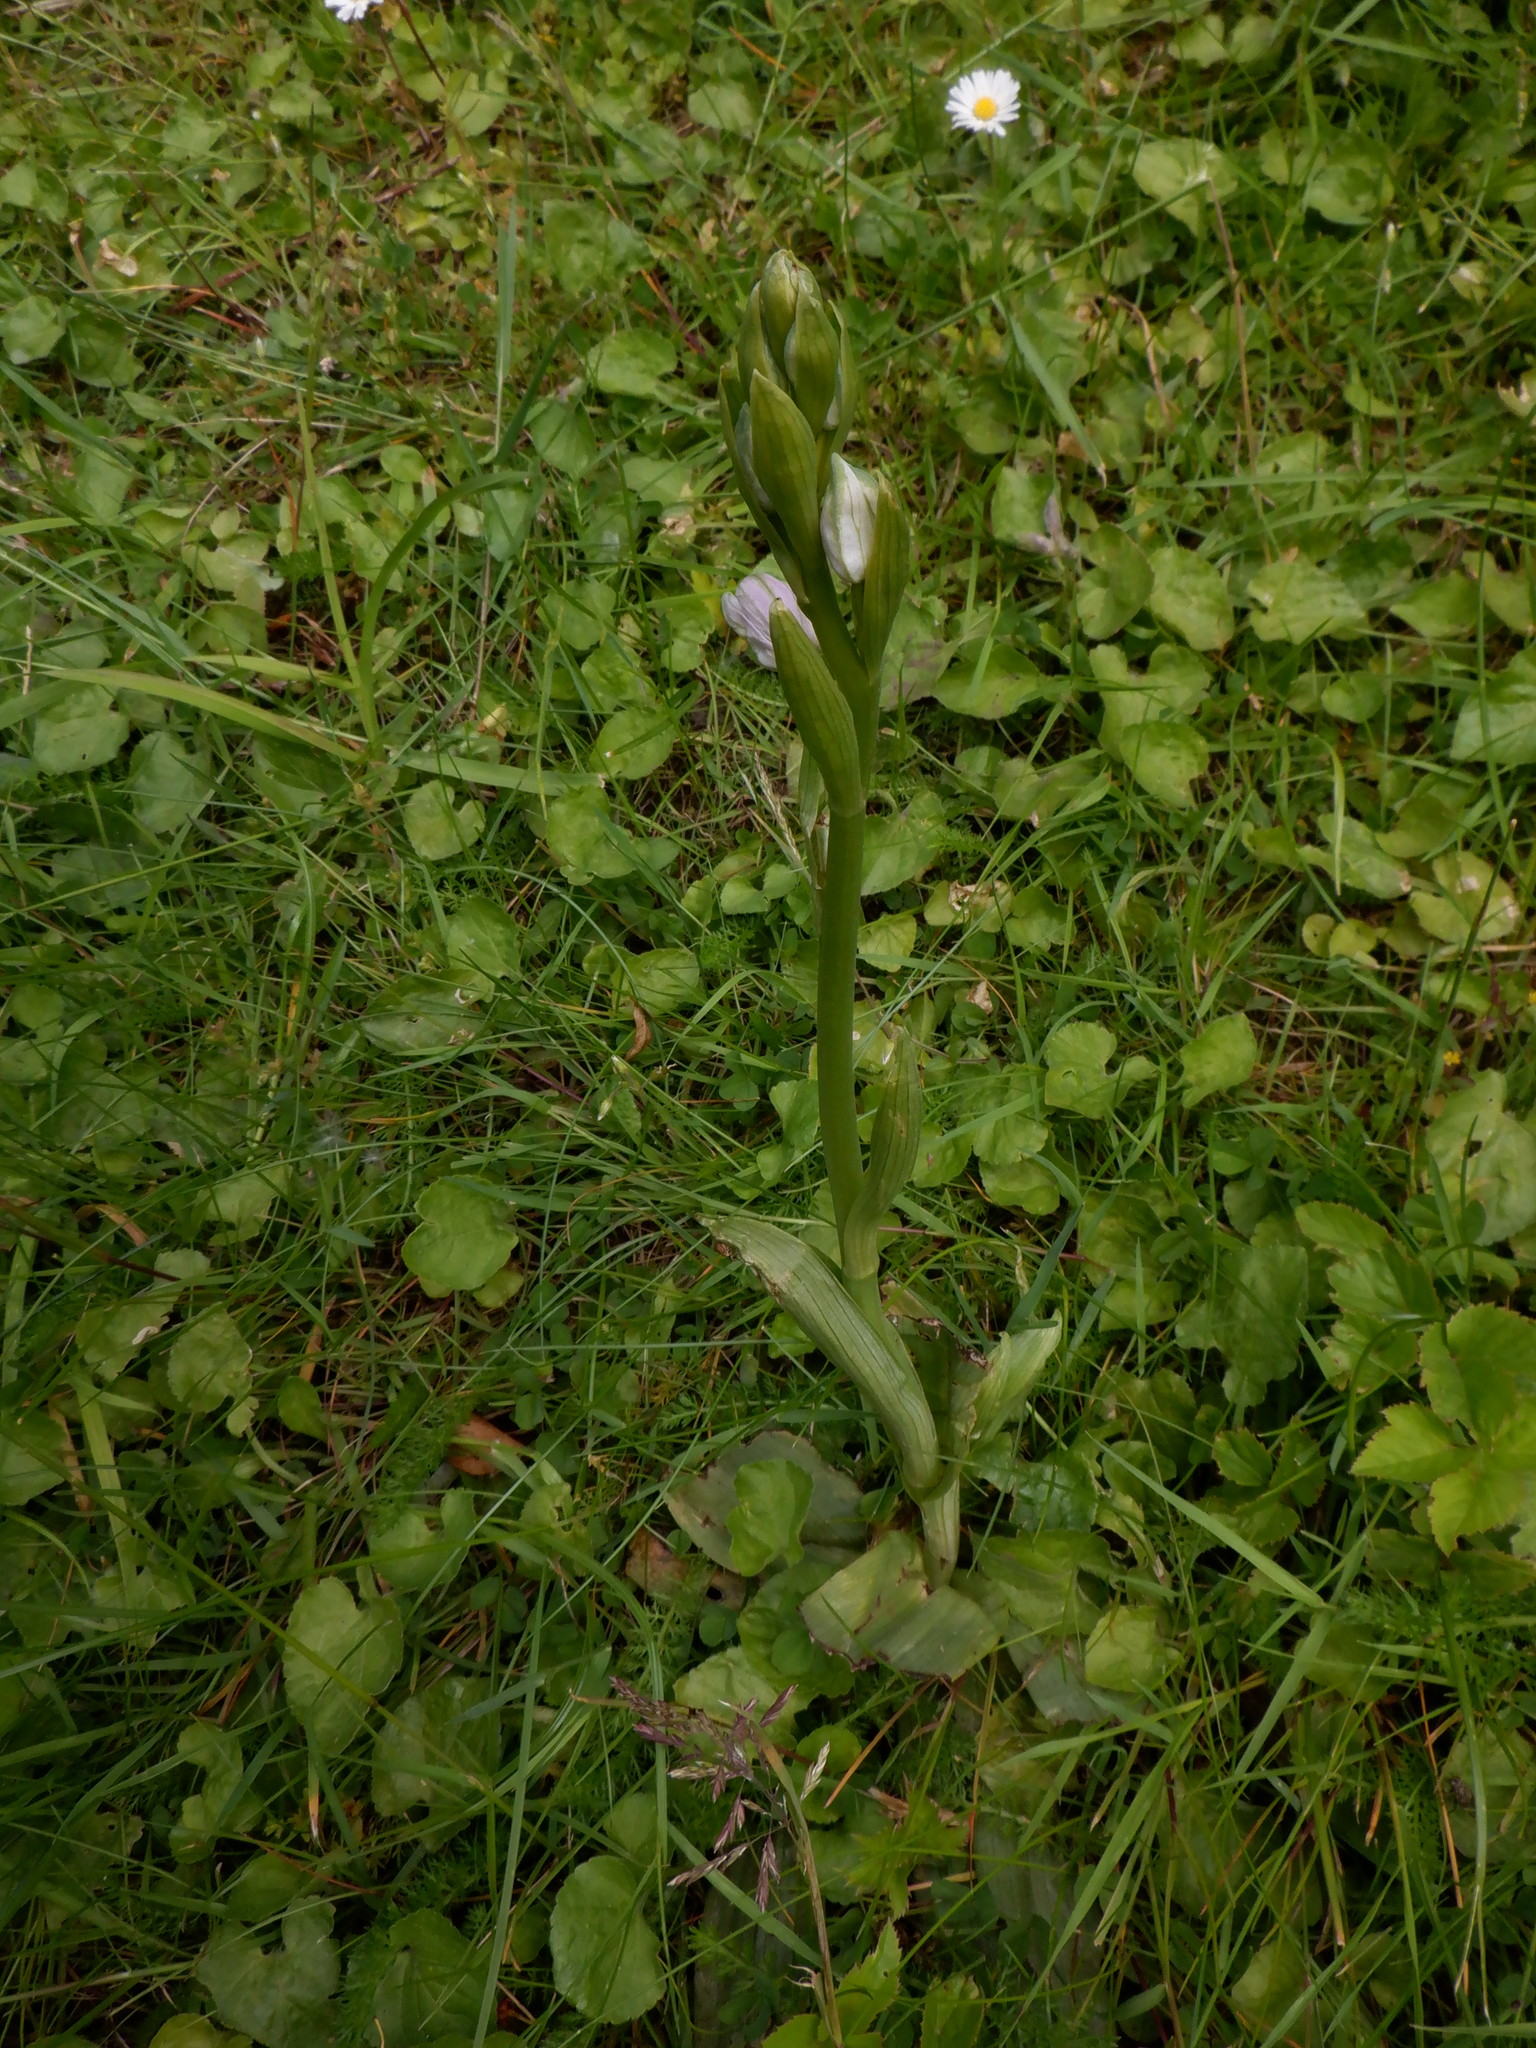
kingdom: Plantae
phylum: Tracheophyta
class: Liliopsida
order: Asparagales
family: Orchidaceae
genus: Ophrys
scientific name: Ophrys apifera
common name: Bee orchid
